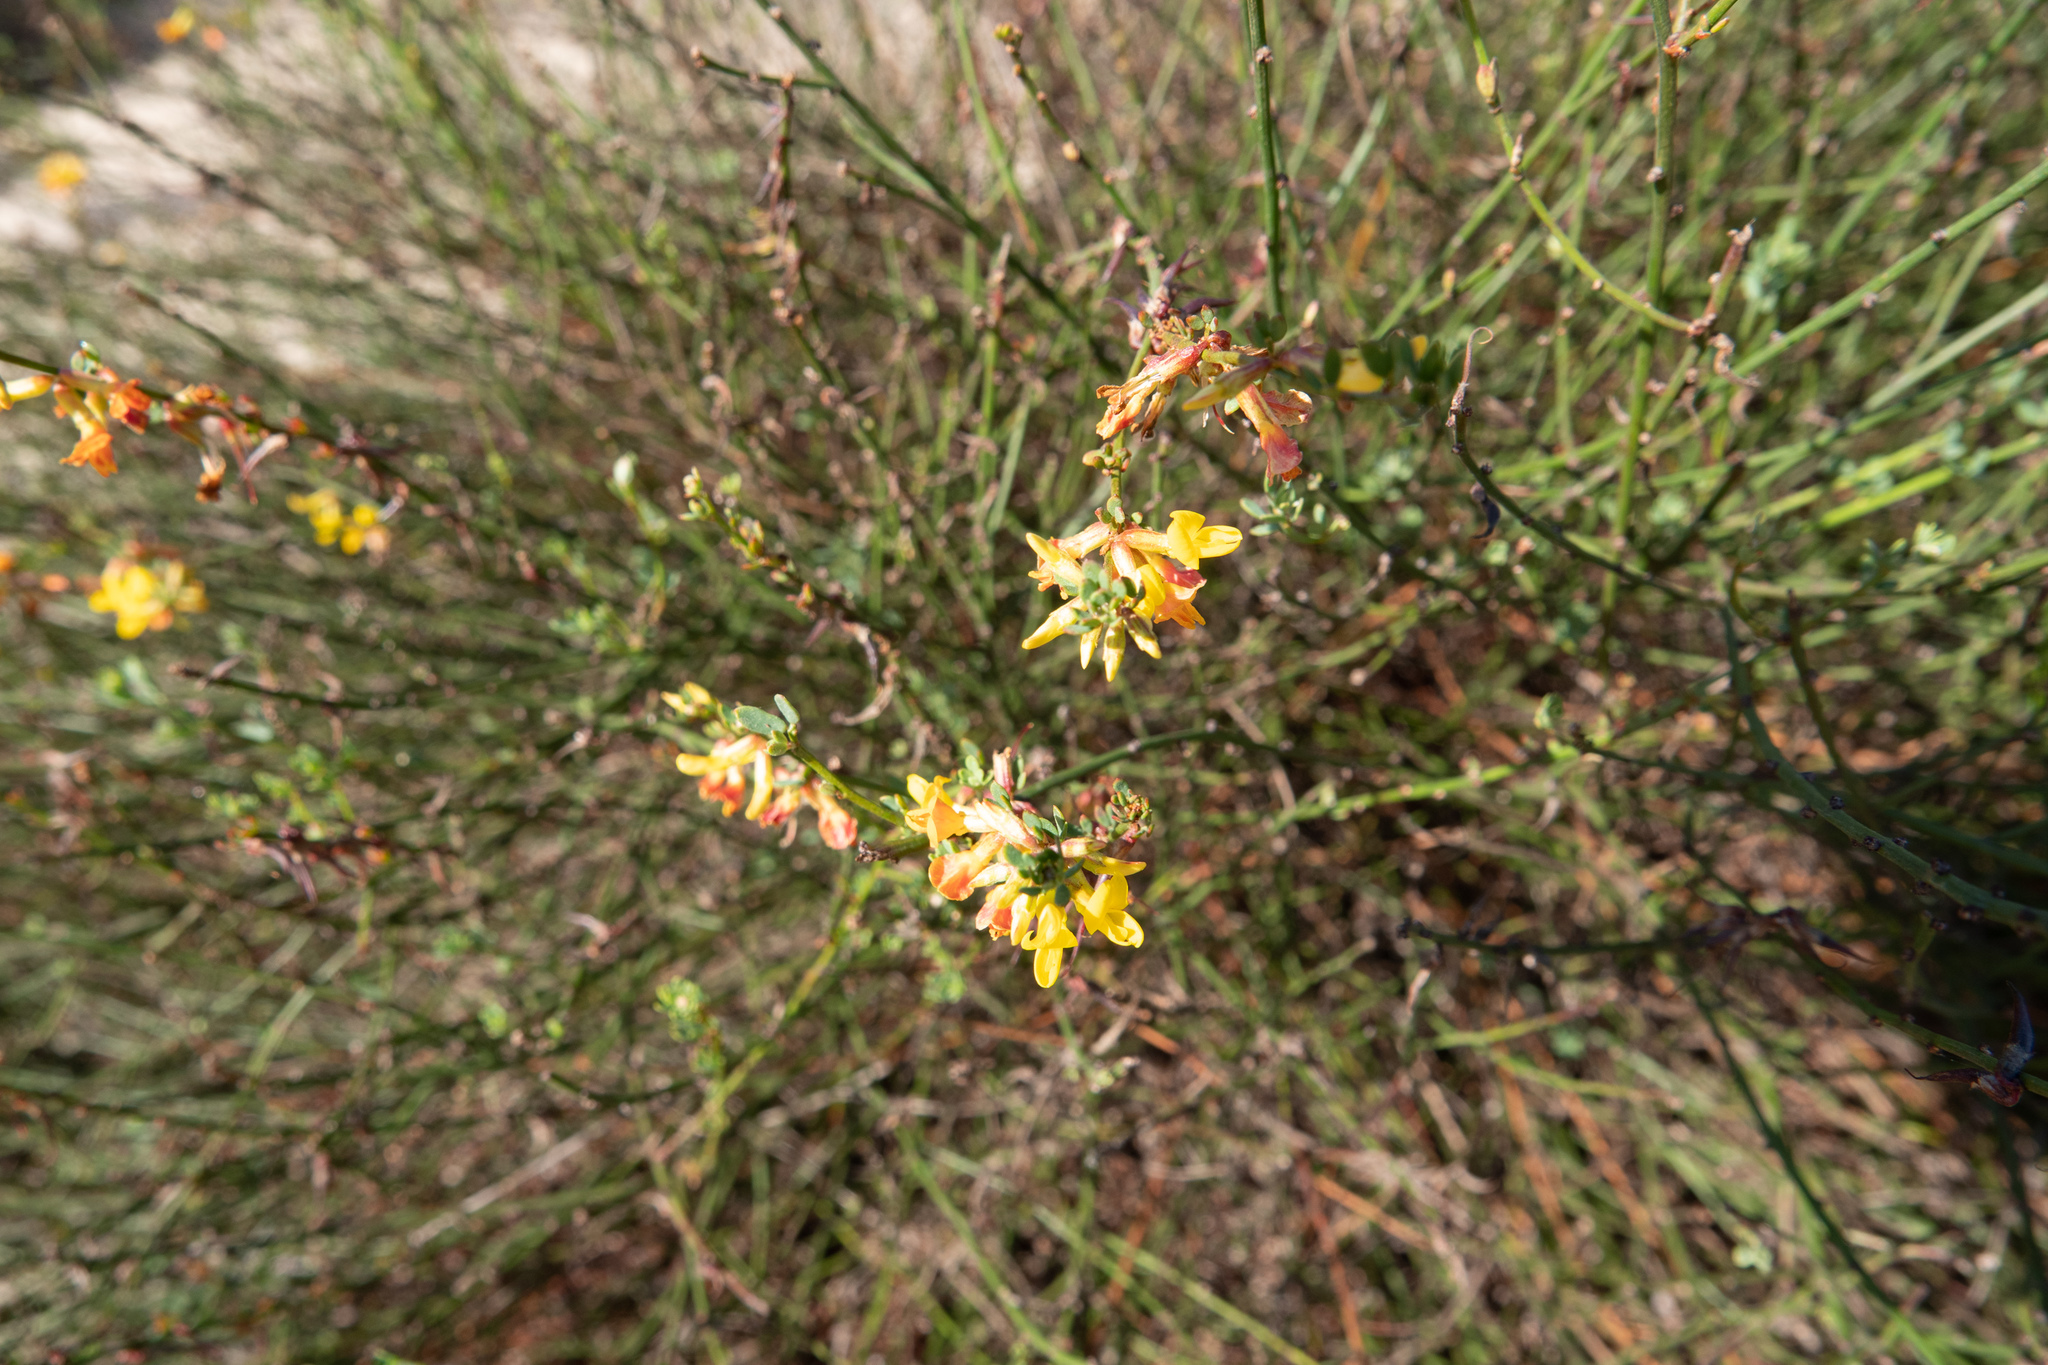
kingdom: Plantae
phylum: Tracheophyta
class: Magnoliopsida
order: Fabales
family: Fabaceae
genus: Acmispon
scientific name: Acmispon glaber
